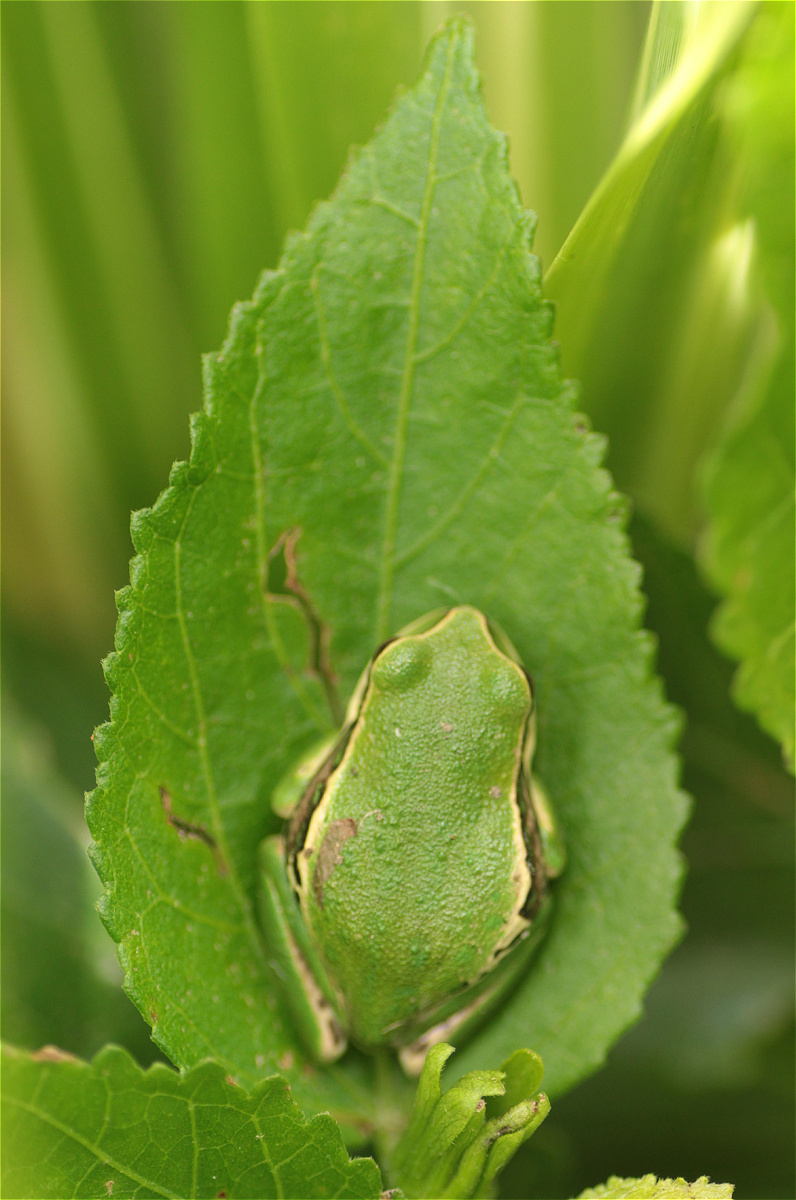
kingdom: Animalia
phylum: Chordata
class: Amphibia
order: Anura
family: Hemiphractidae
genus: Gastrotheca
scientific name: Gastrotheca cuencana
